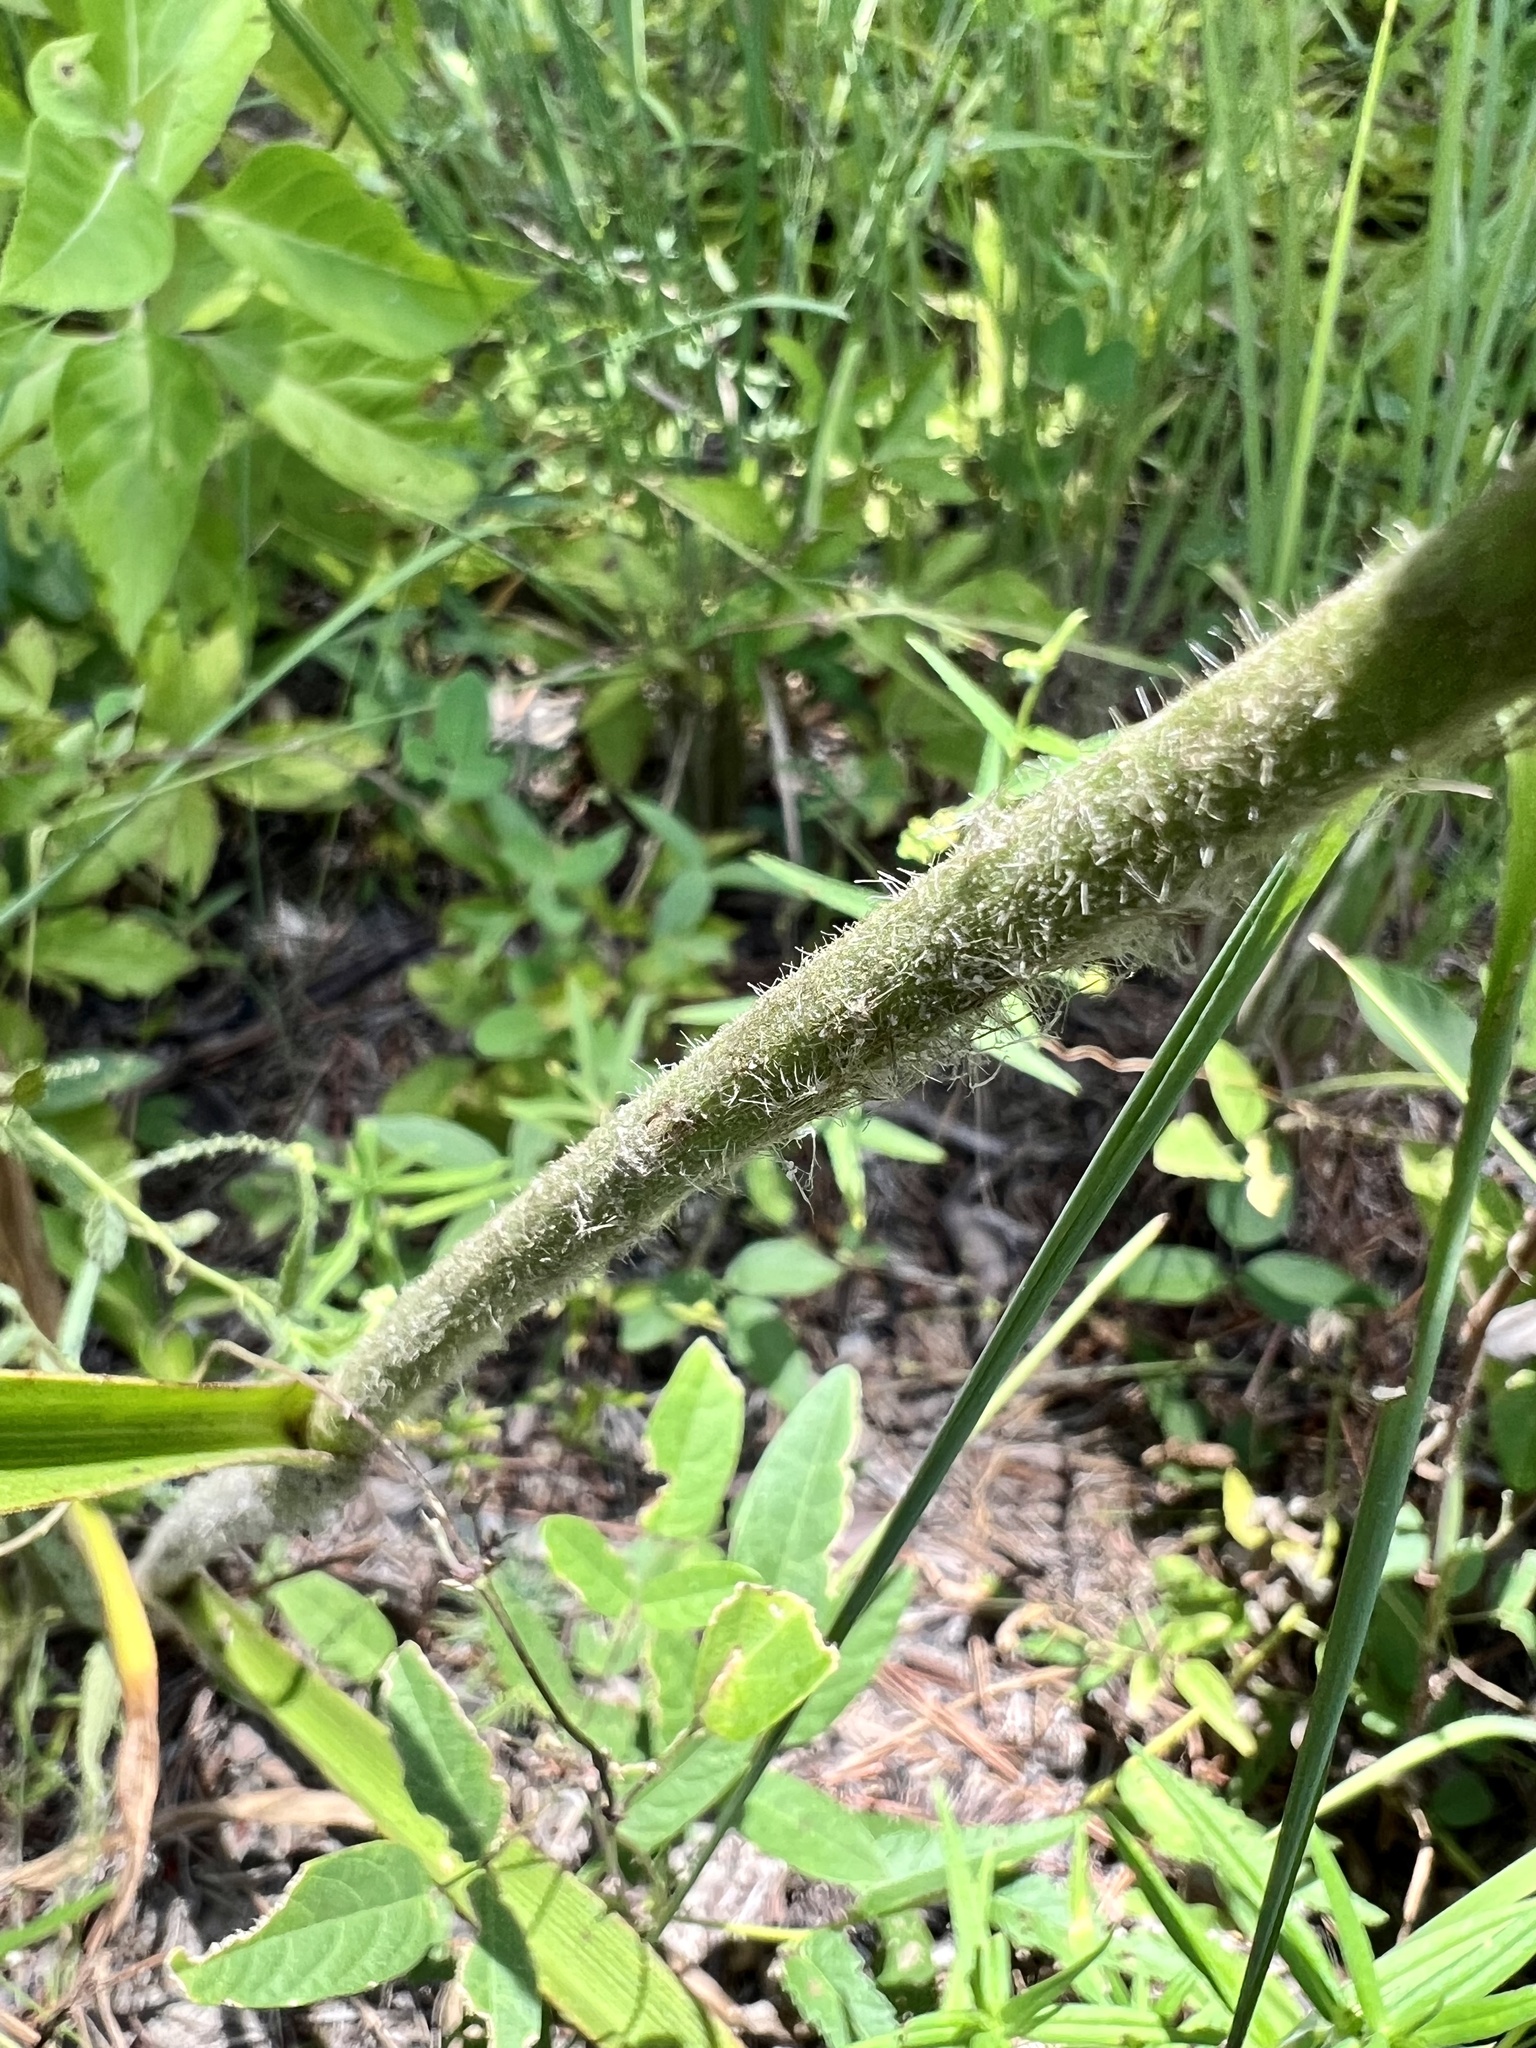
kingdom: Plantae
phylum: Tracheophyta
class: Liliopsida
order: Commelinales
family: Commelinaceae
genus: Tradescantia
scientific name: Tradescantia reverchonii
